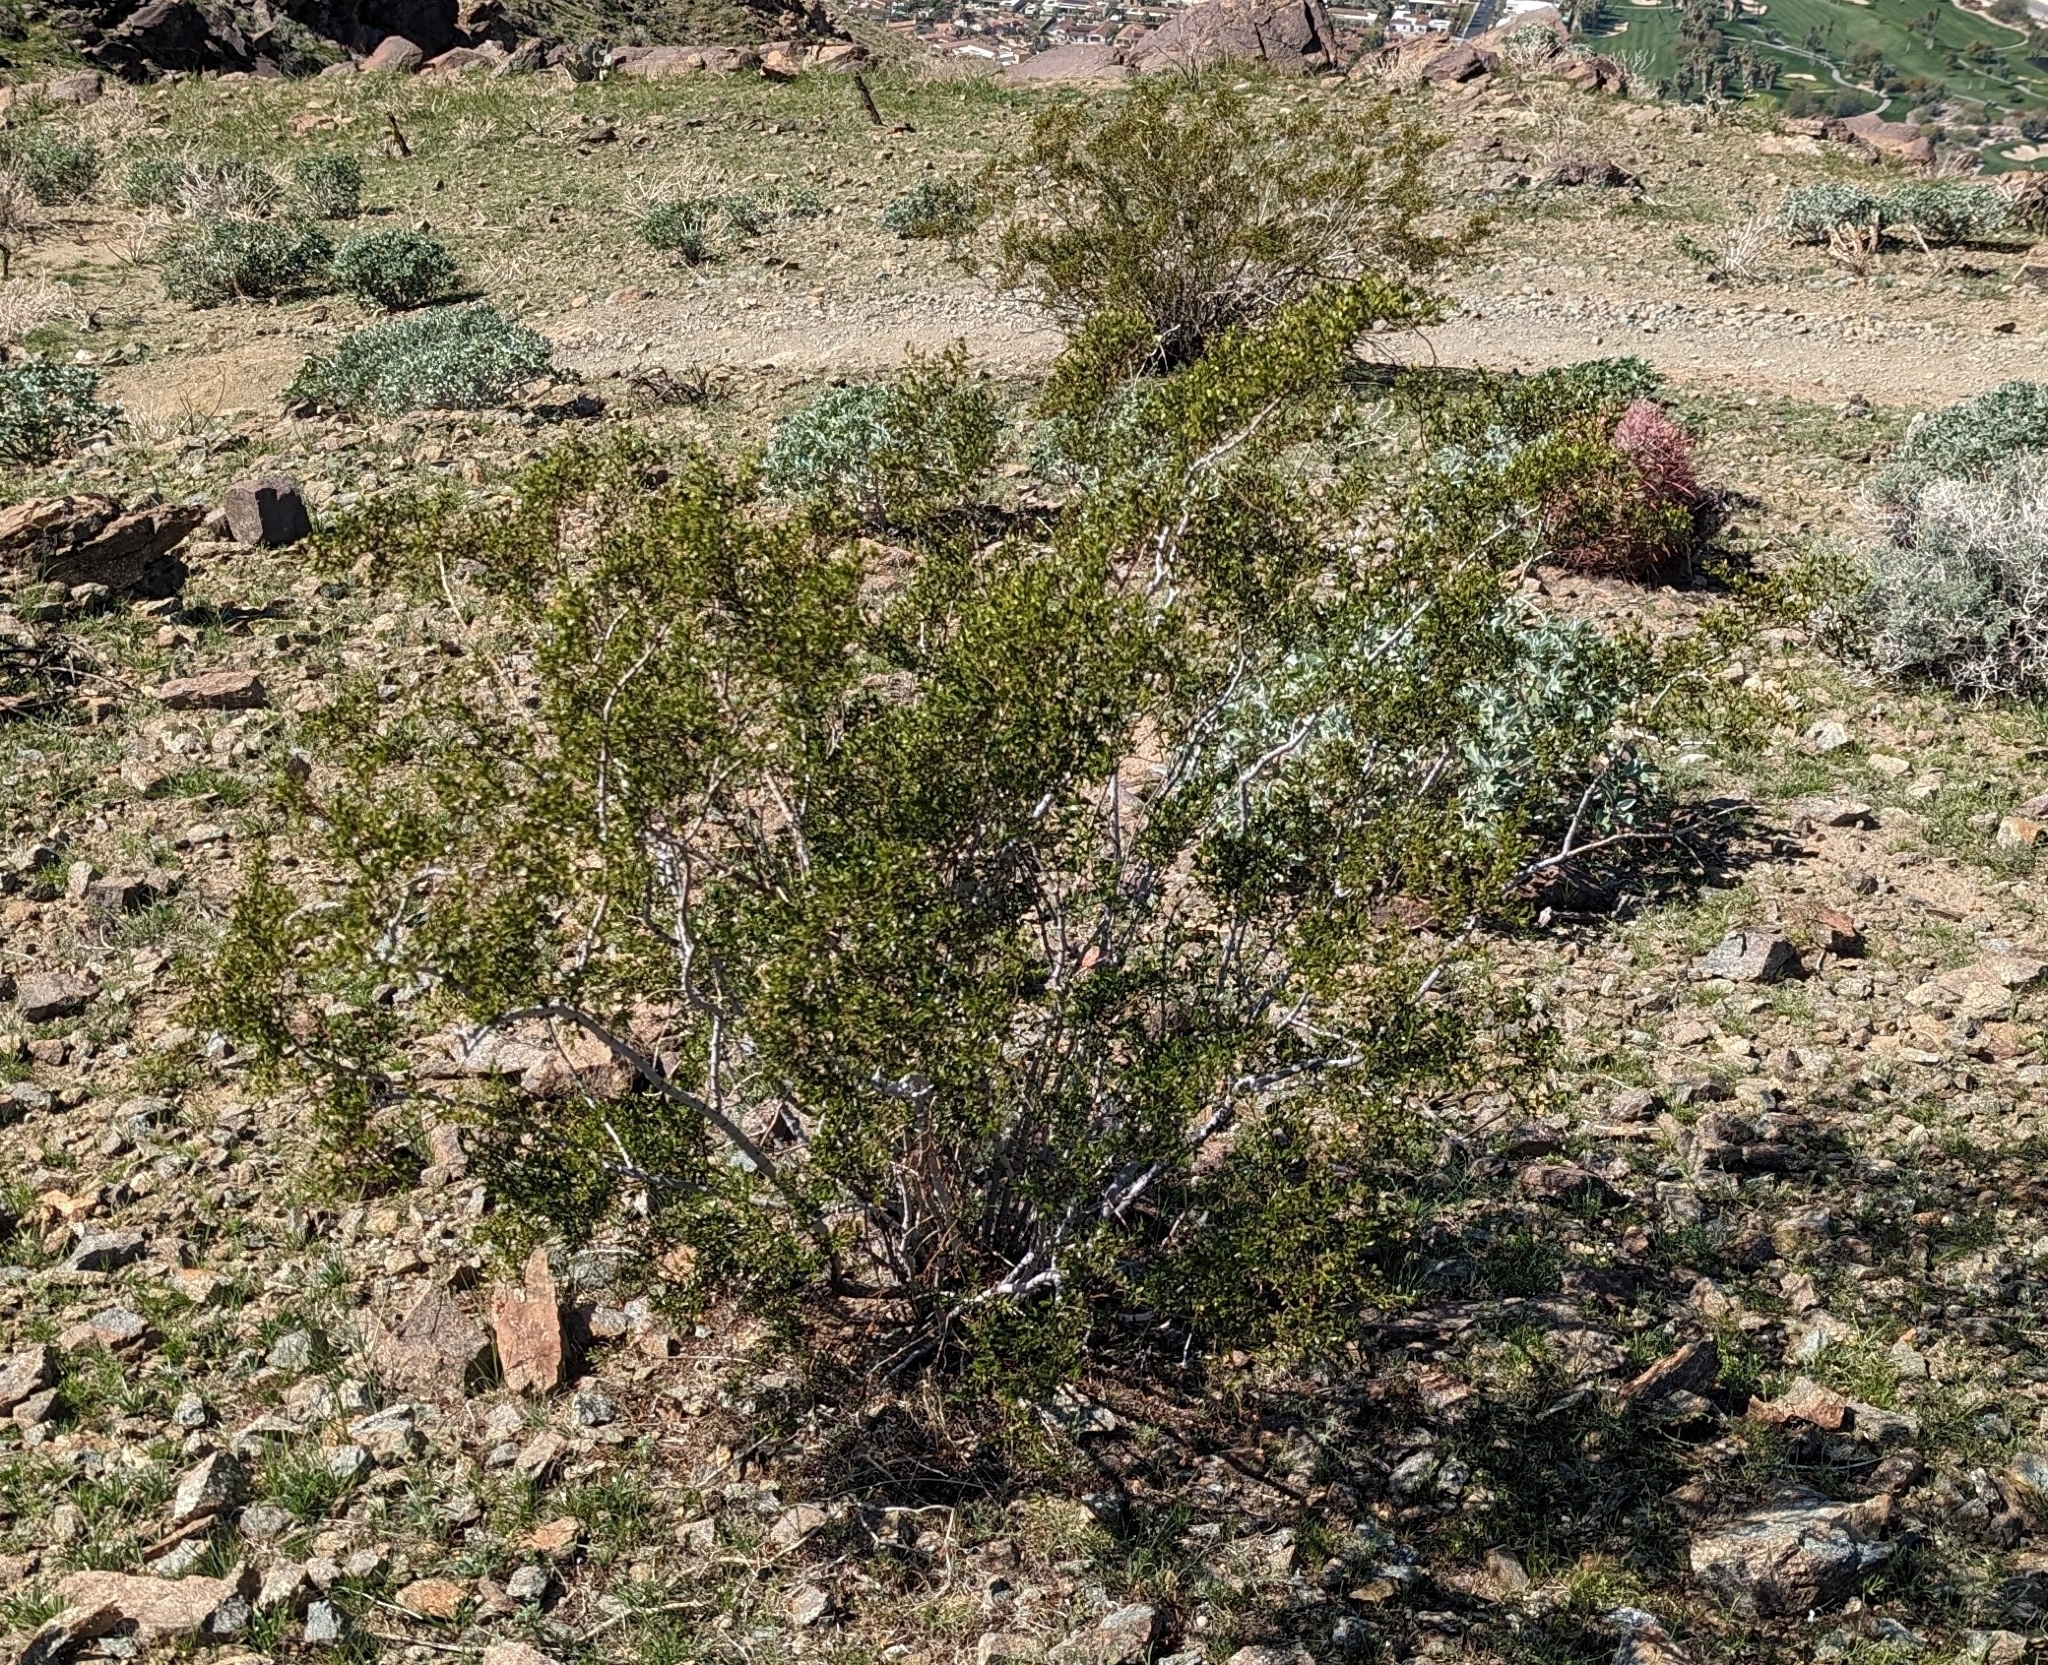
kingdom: Plantae
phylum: Tracheophyta
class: Magnoliopsida
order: Zygophyllales
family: Zygophyllaceae
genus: Larrea
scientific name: Larrea tridentata
